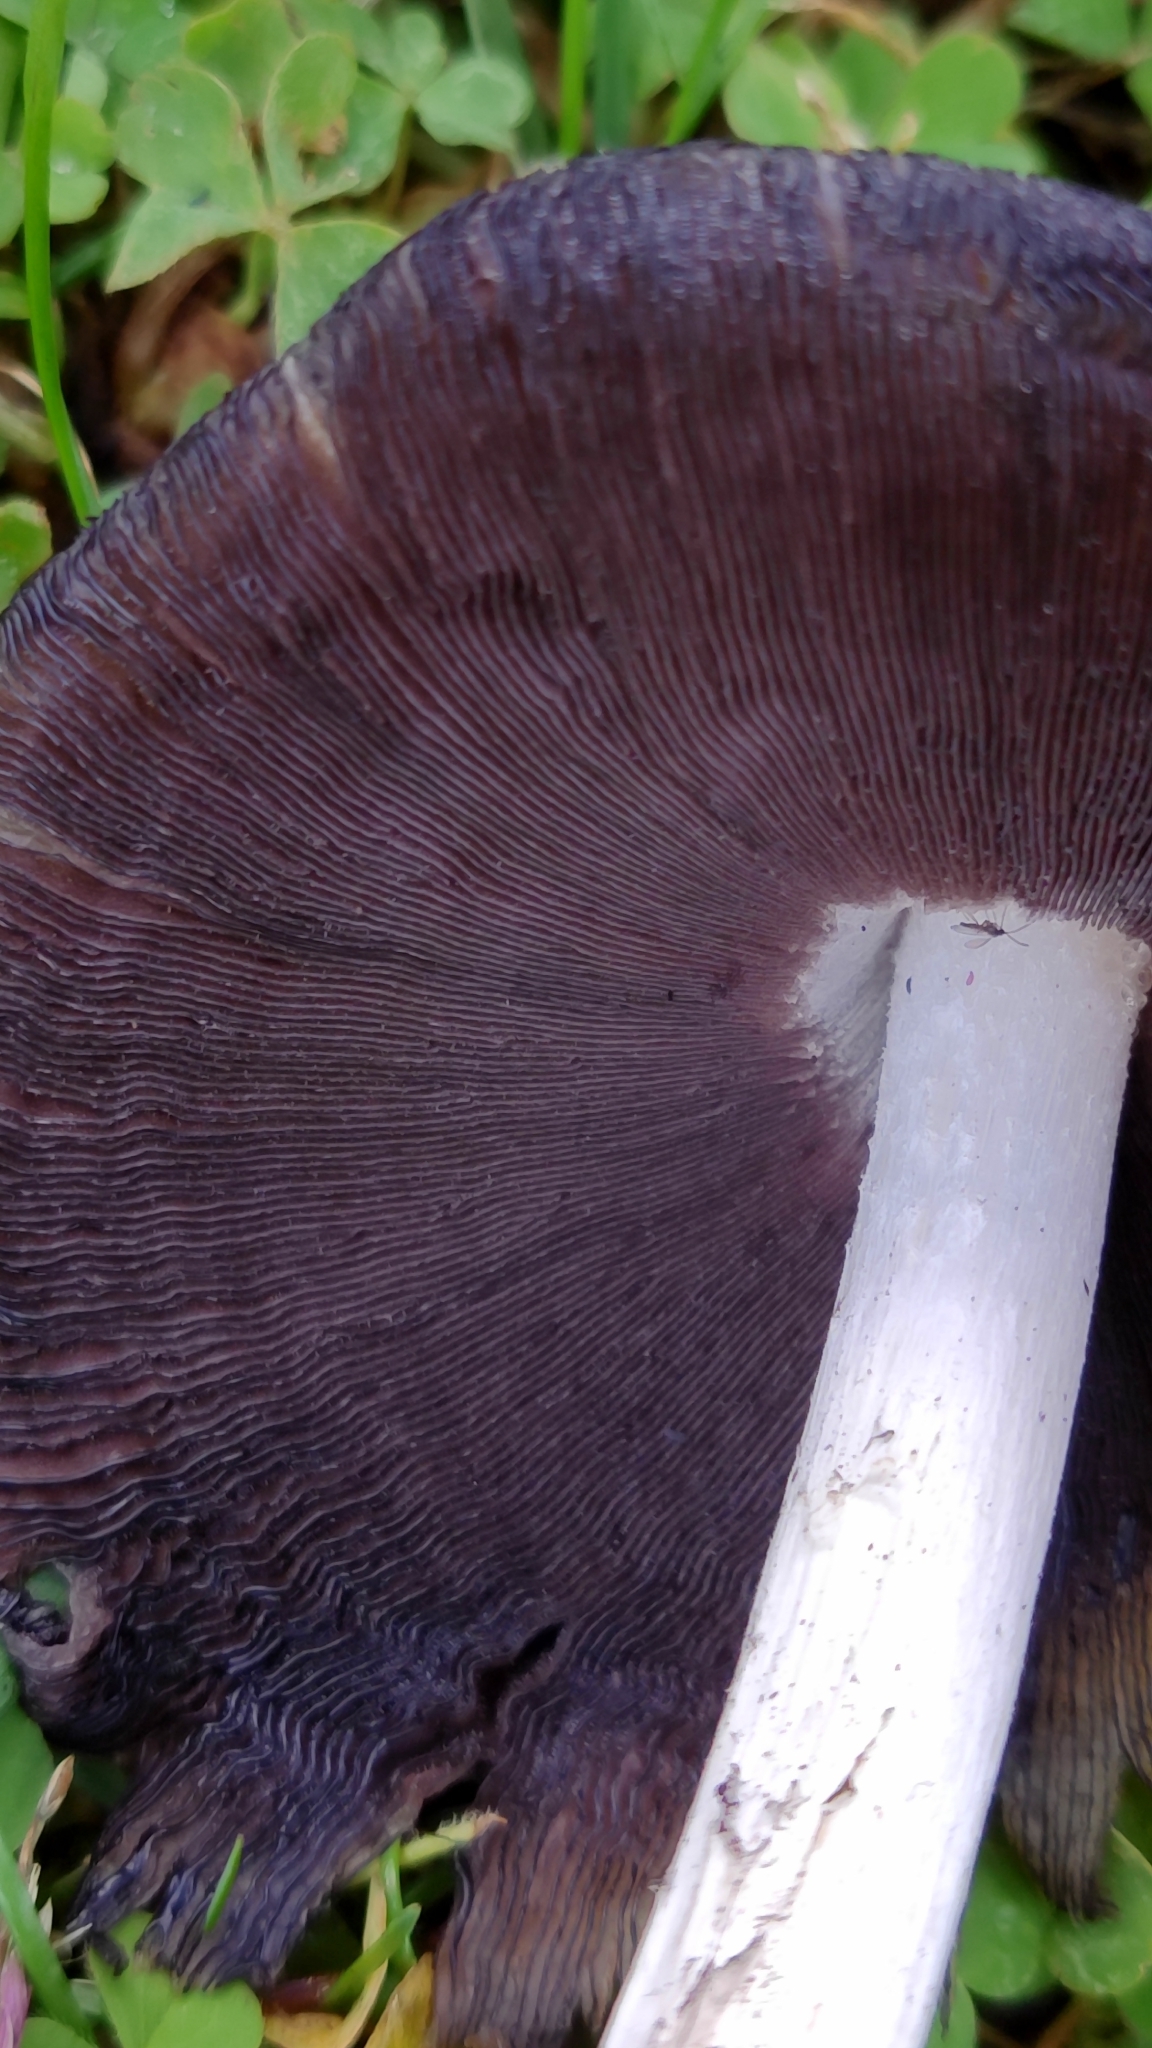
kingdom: Fungi
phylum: Basidiomycota
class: Agaricomycetes
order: Agaricales
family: Psathyrellaceae
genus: Coprinopsis
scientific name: Coprinopsis atramentaria
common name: Common ink-cap
